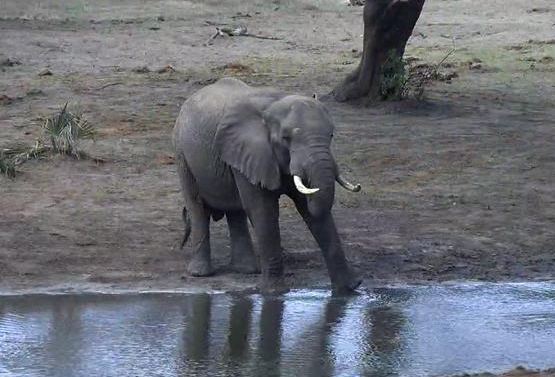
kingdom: Animalia
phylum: Chordata
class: Mammalia
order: Proboscidea
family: Elephantidae
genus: Loxodonta
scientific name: Loxodonta africana
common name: African elephant
